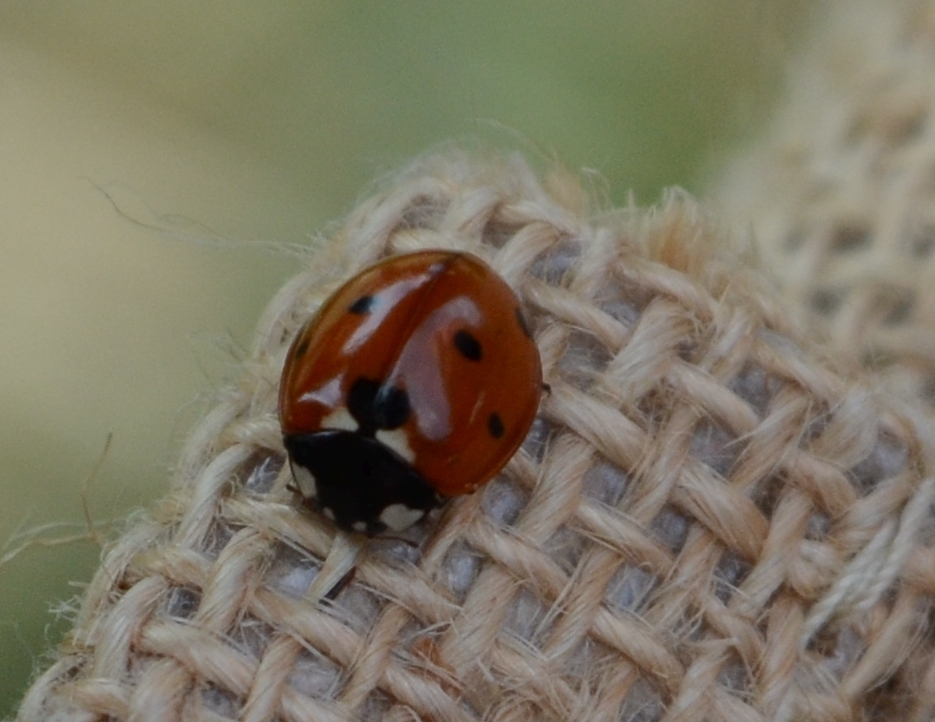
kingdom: Animalia
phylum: Arthropoda
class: Insecta
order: Coleoptera
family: Coccinellidae
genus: Coccinella
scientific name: Coccinella septempunctata
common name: Sevenspotted lady beetle
